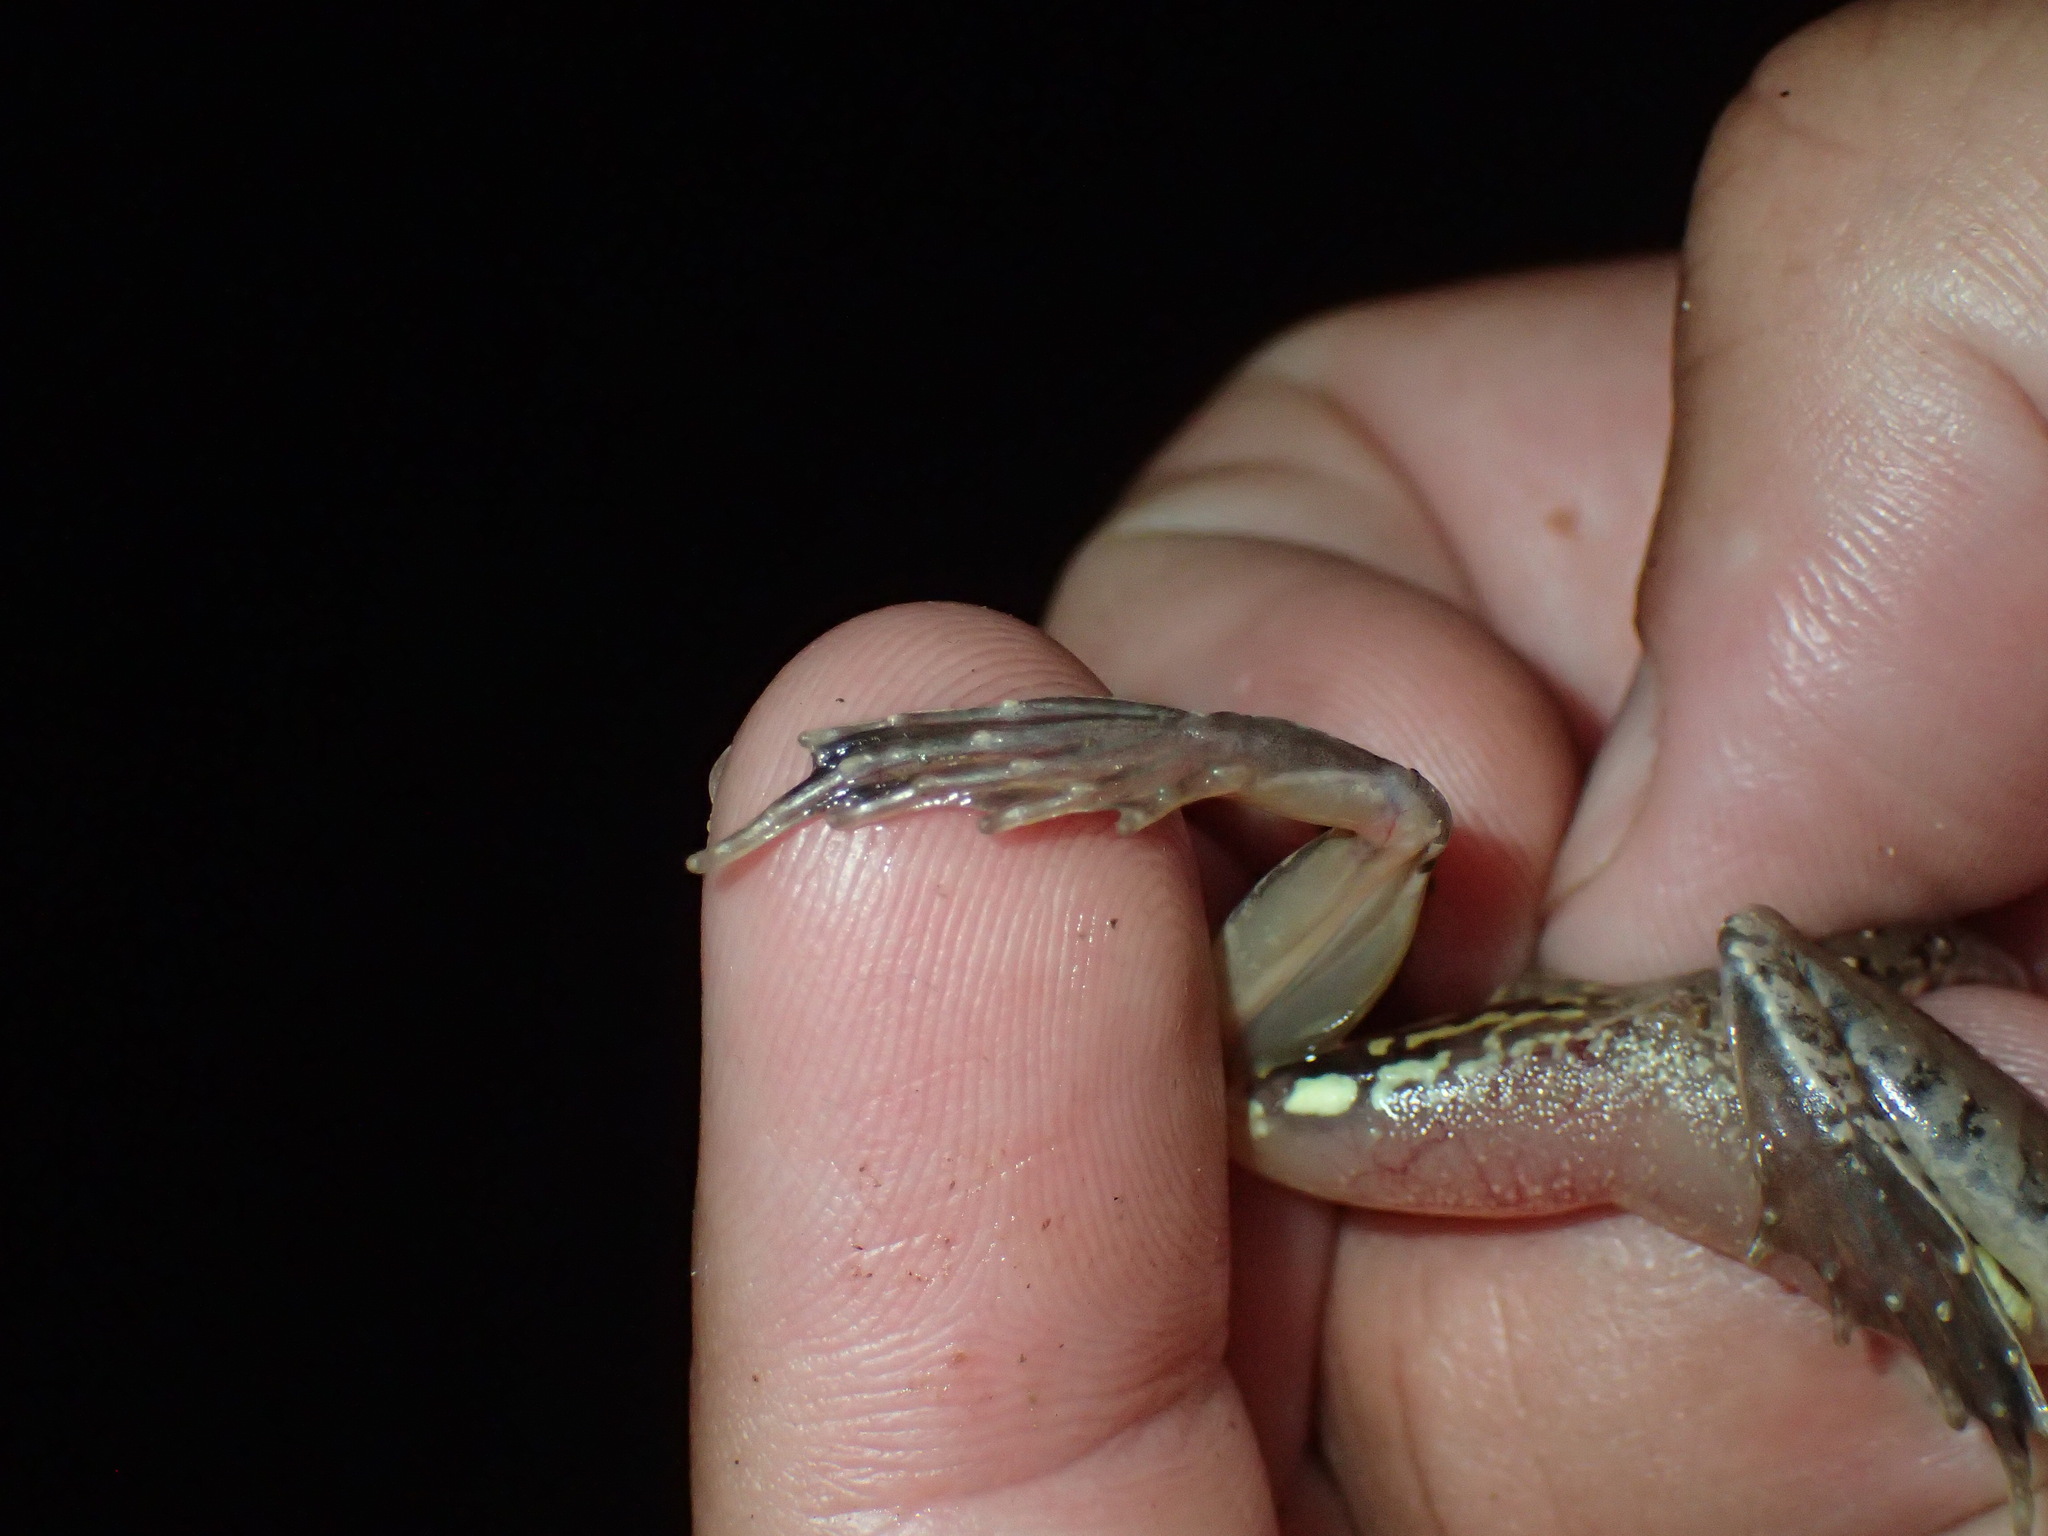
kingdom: Animalia
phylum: Chordata
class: Amphibia
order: Anura
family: Ptychadenidae
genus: Ptychadena
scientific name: Ptychadena anchietae
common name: Anchieta's ridged frog
